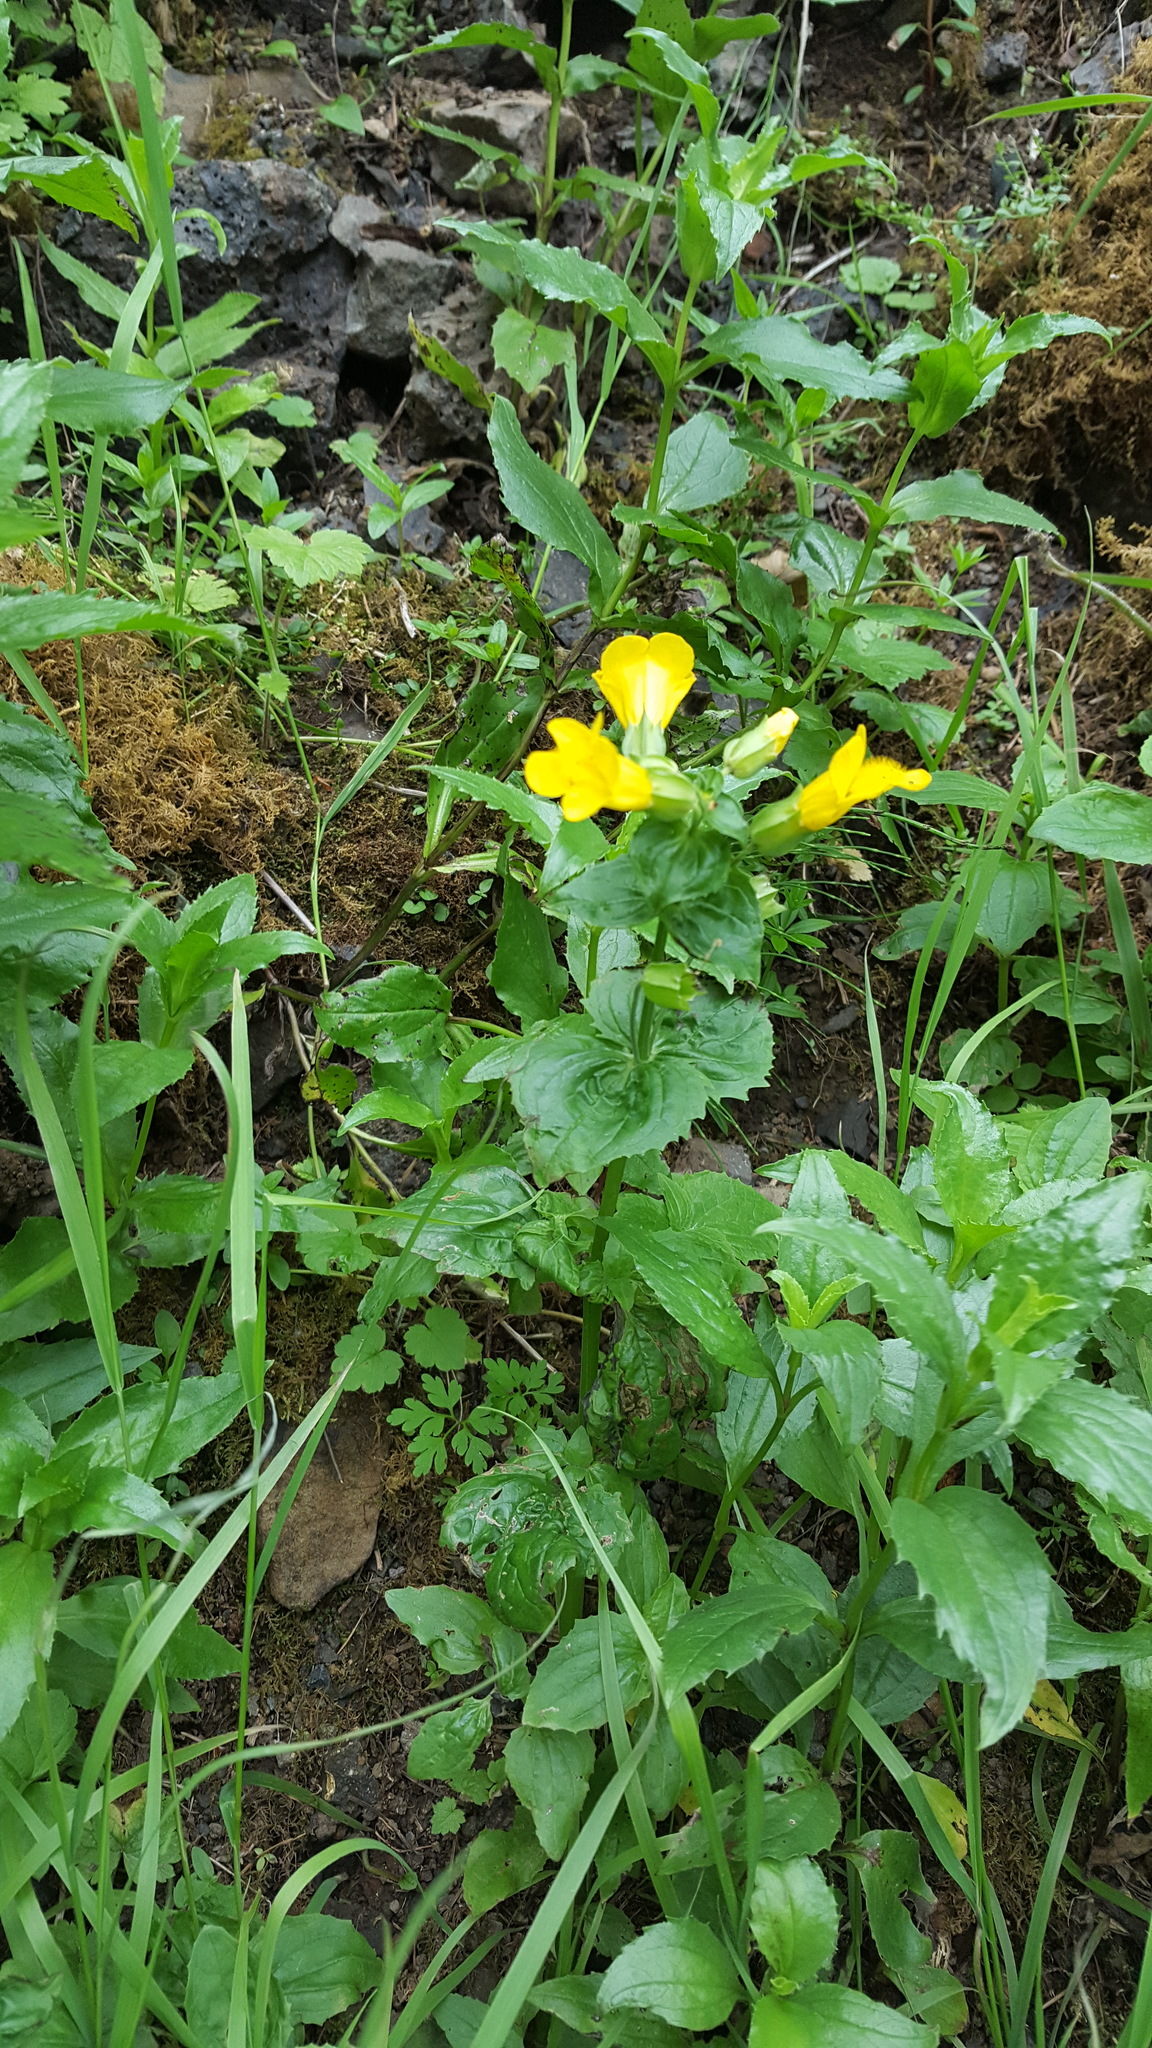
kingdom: Plantae
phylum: Tracheophyta
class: Magnoliopsida
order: Lamiales
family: Phrymaceae
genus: Erythranthe
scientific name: Erythranthe decora
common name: Mannered monkeyflower
